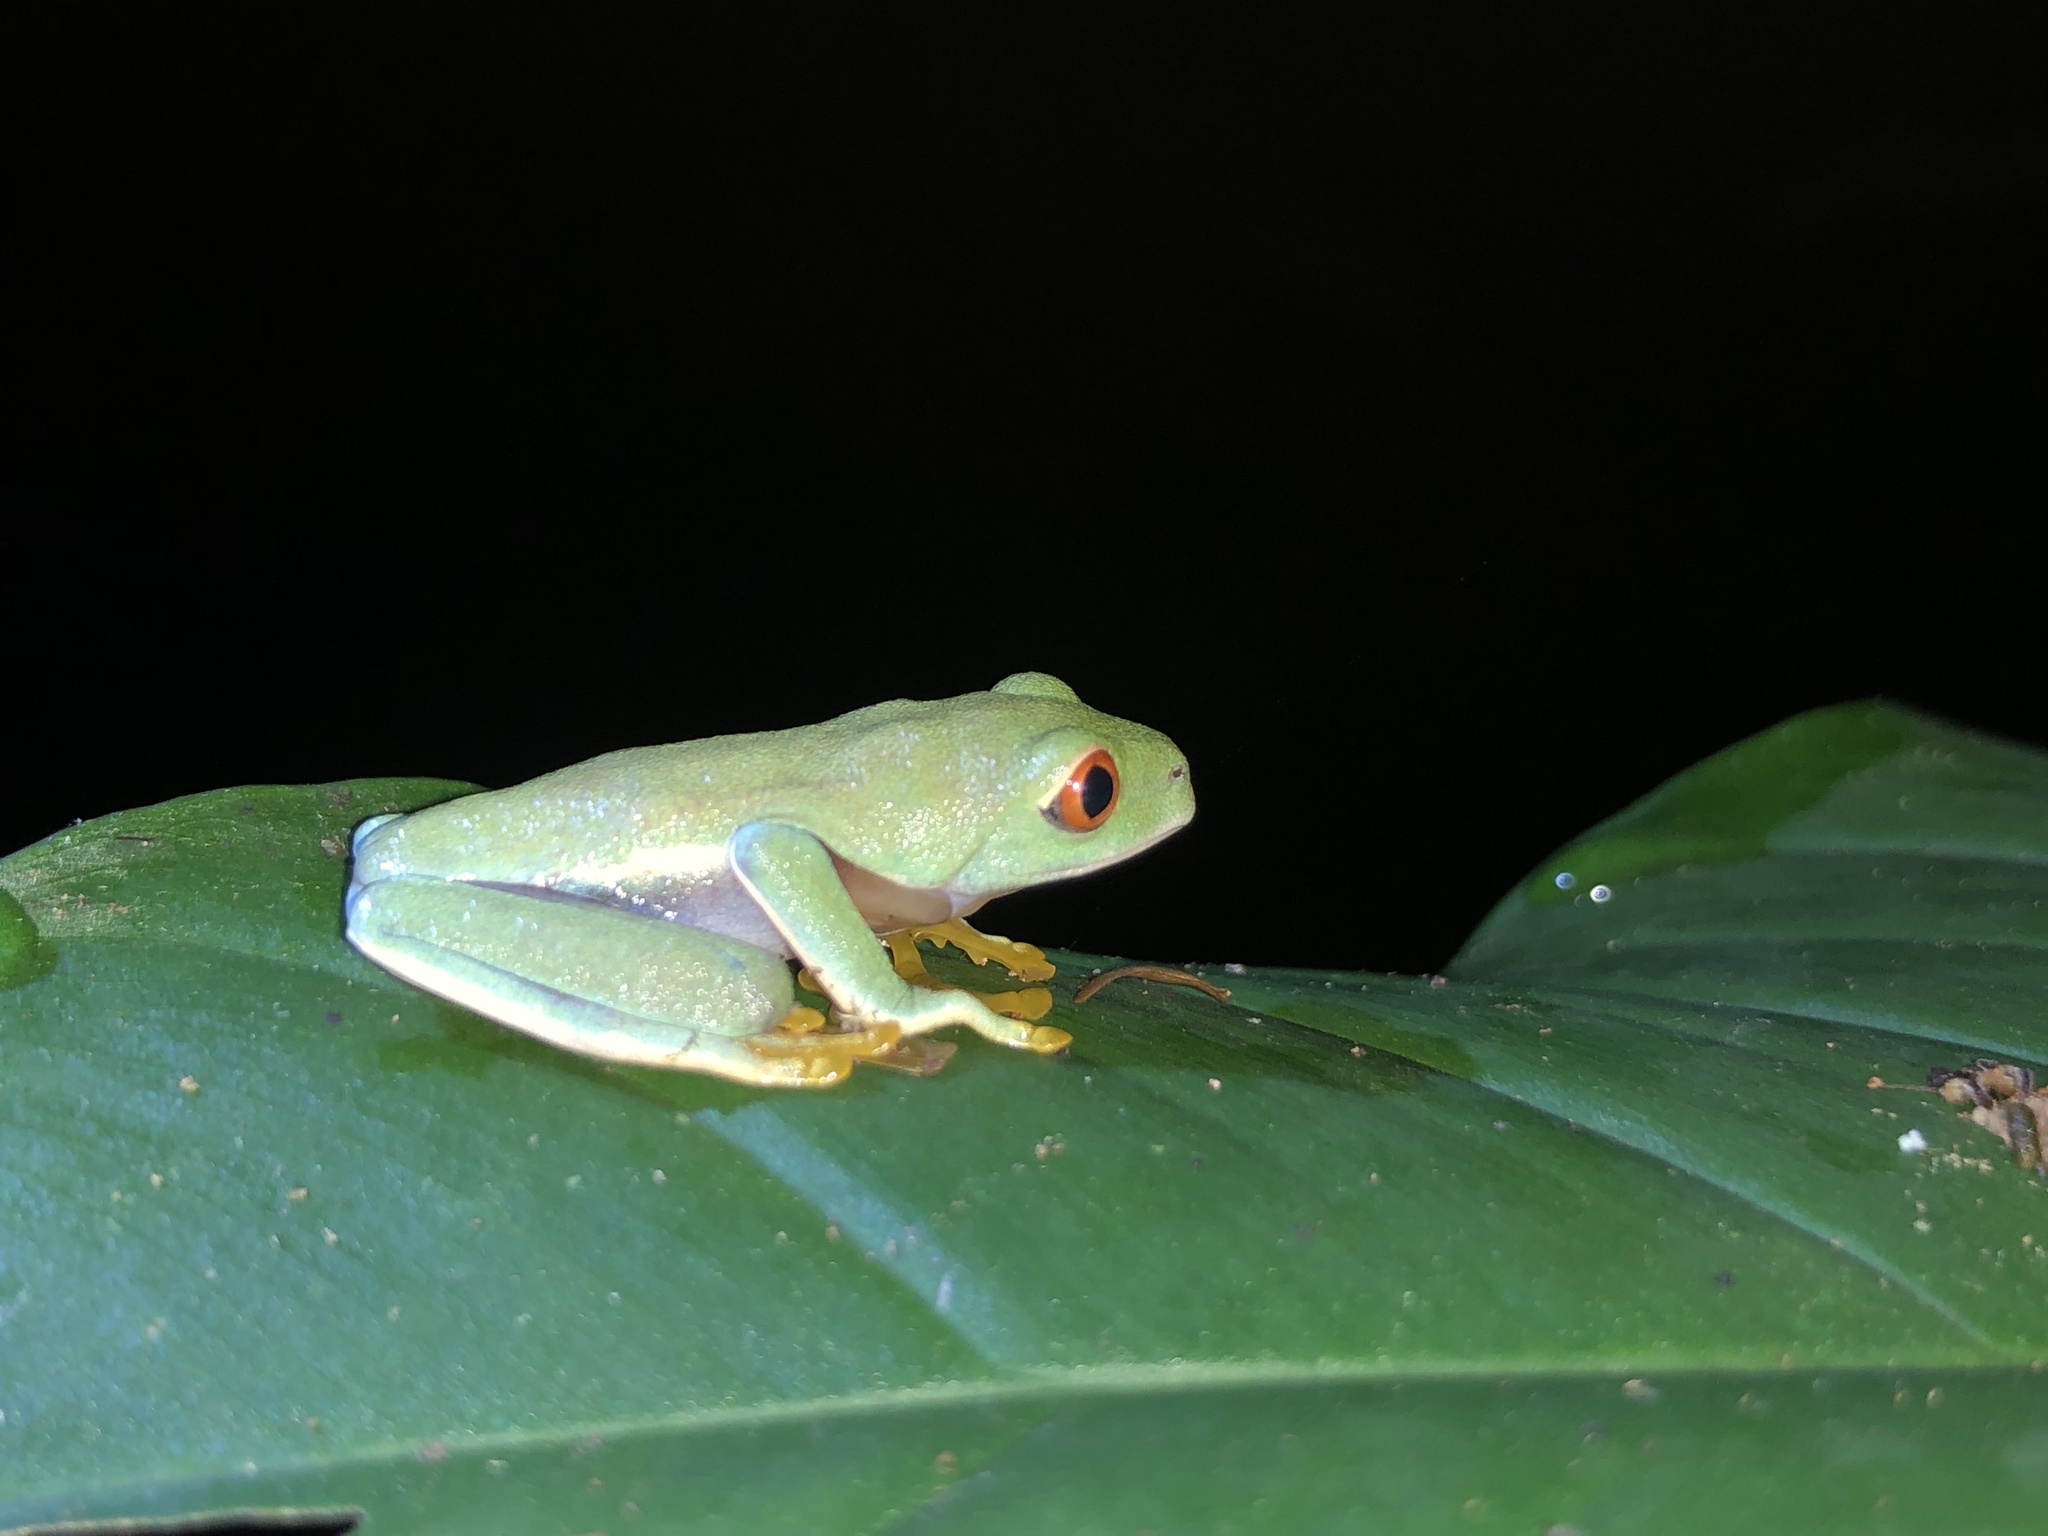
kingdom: Animalia
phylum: Chordata
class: Amphibia
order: Anura
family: Phyllomedusidae
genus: Agalychnis
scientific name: Agalychnis callidryas
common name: Red-eyed treefrog
